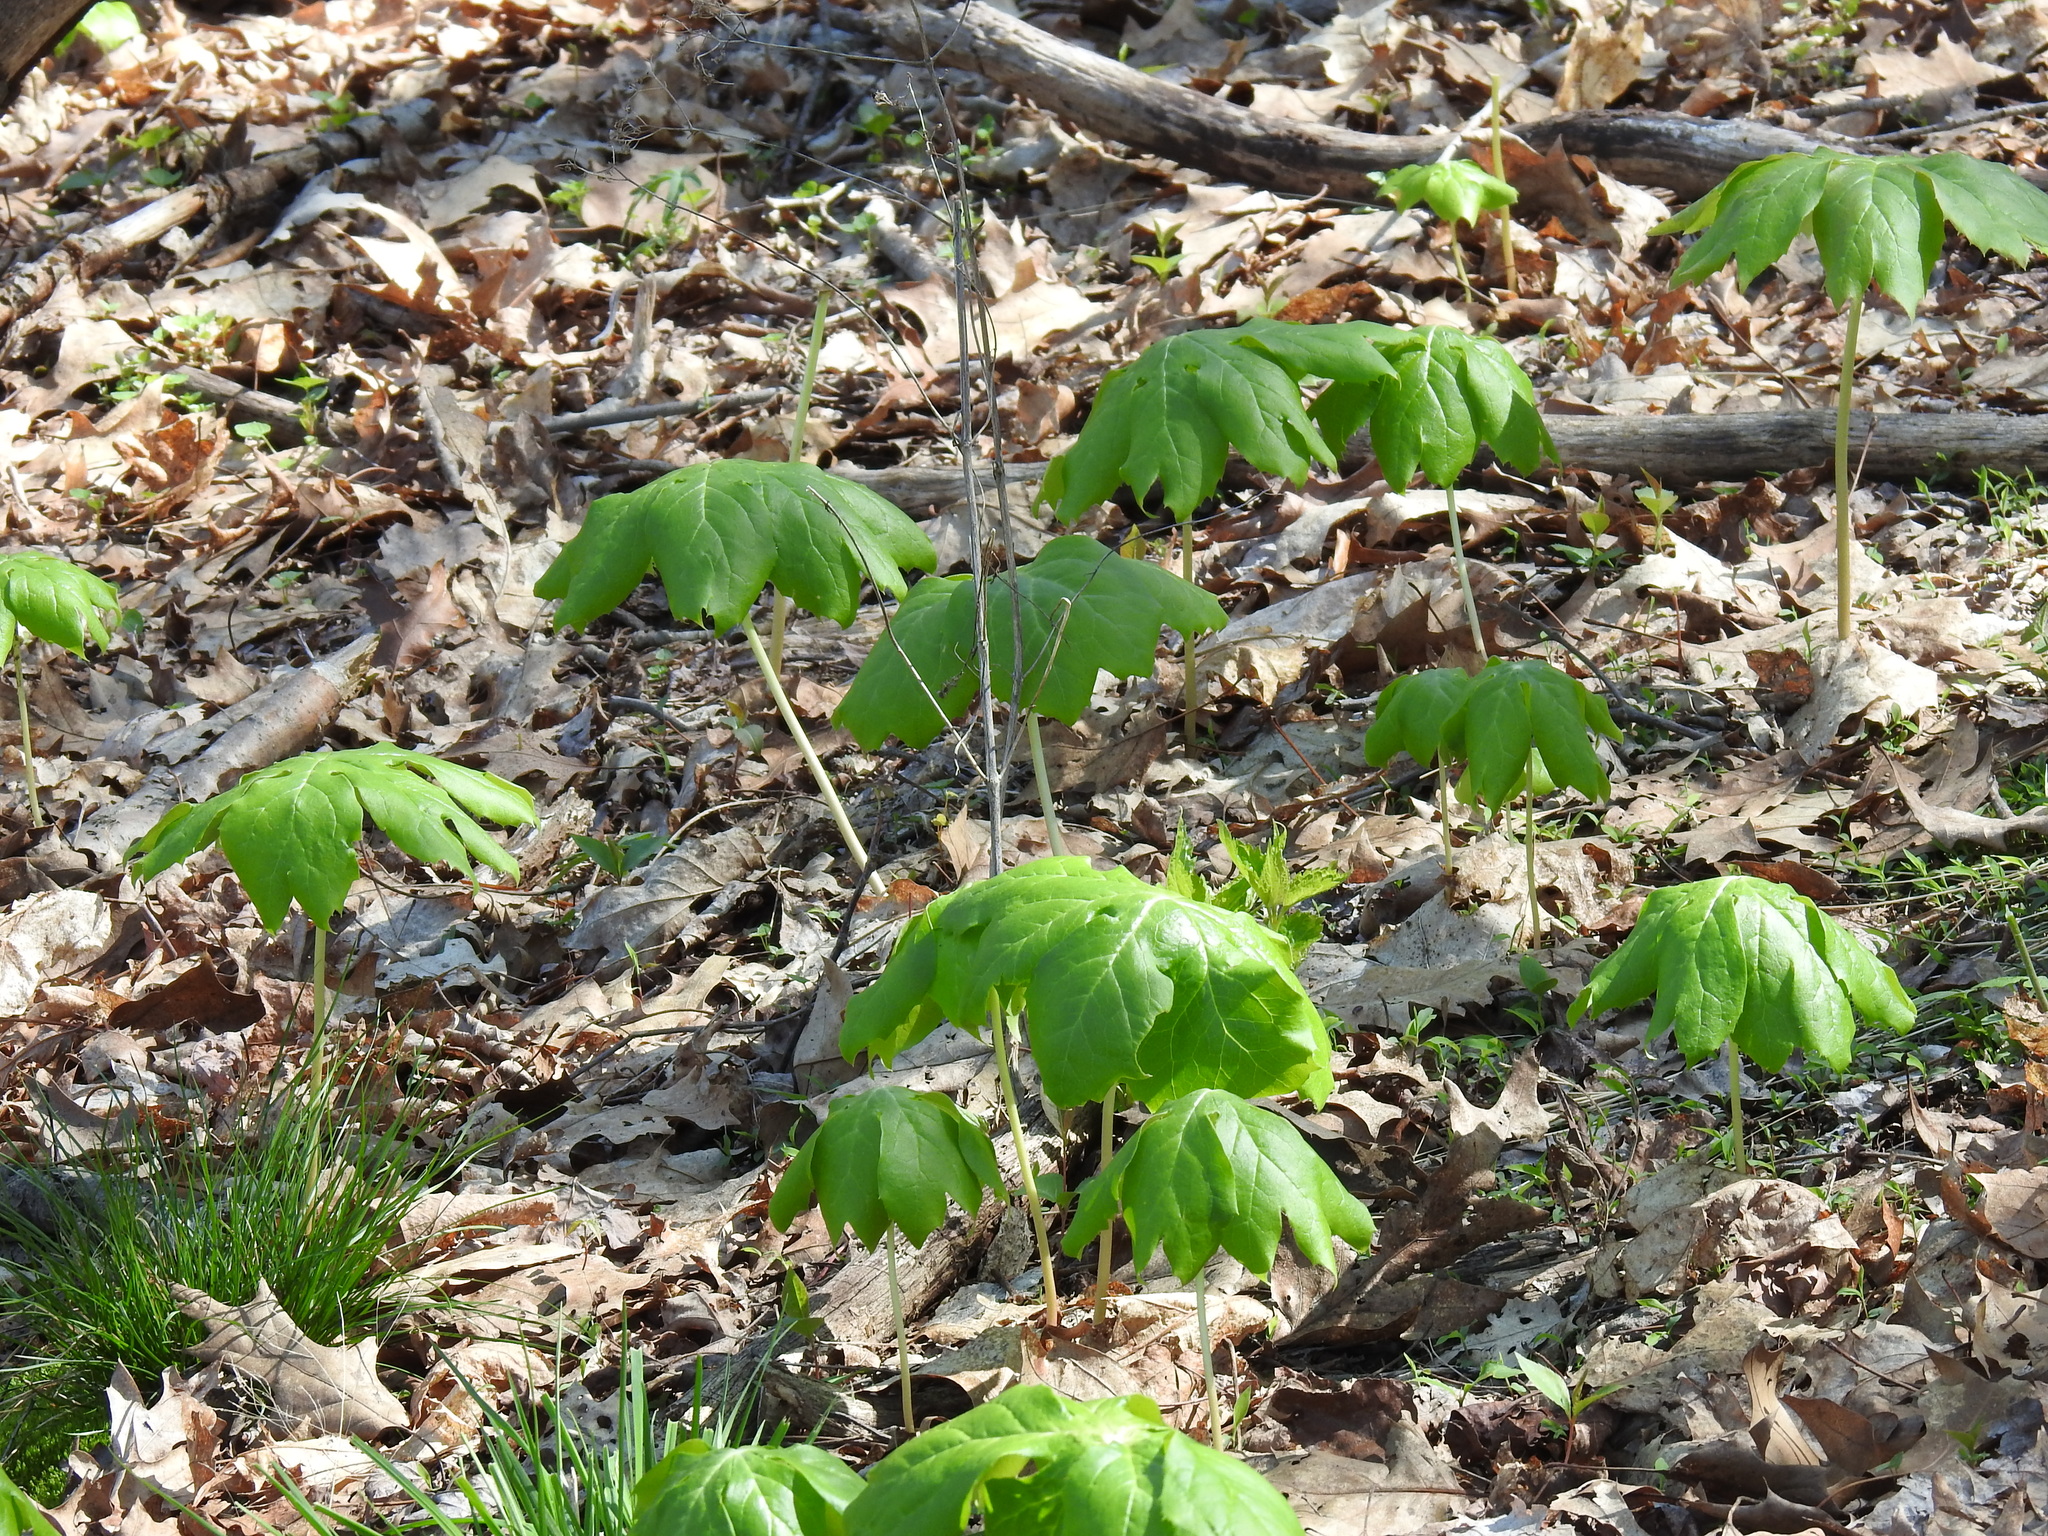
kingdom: Plantae
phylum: Tracheophyta
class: Magnoliopsida
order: Ranunculales
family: Berberidaceae
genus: Podophyllum
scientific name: Podophyllum peltatum
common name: Wild mandrake
